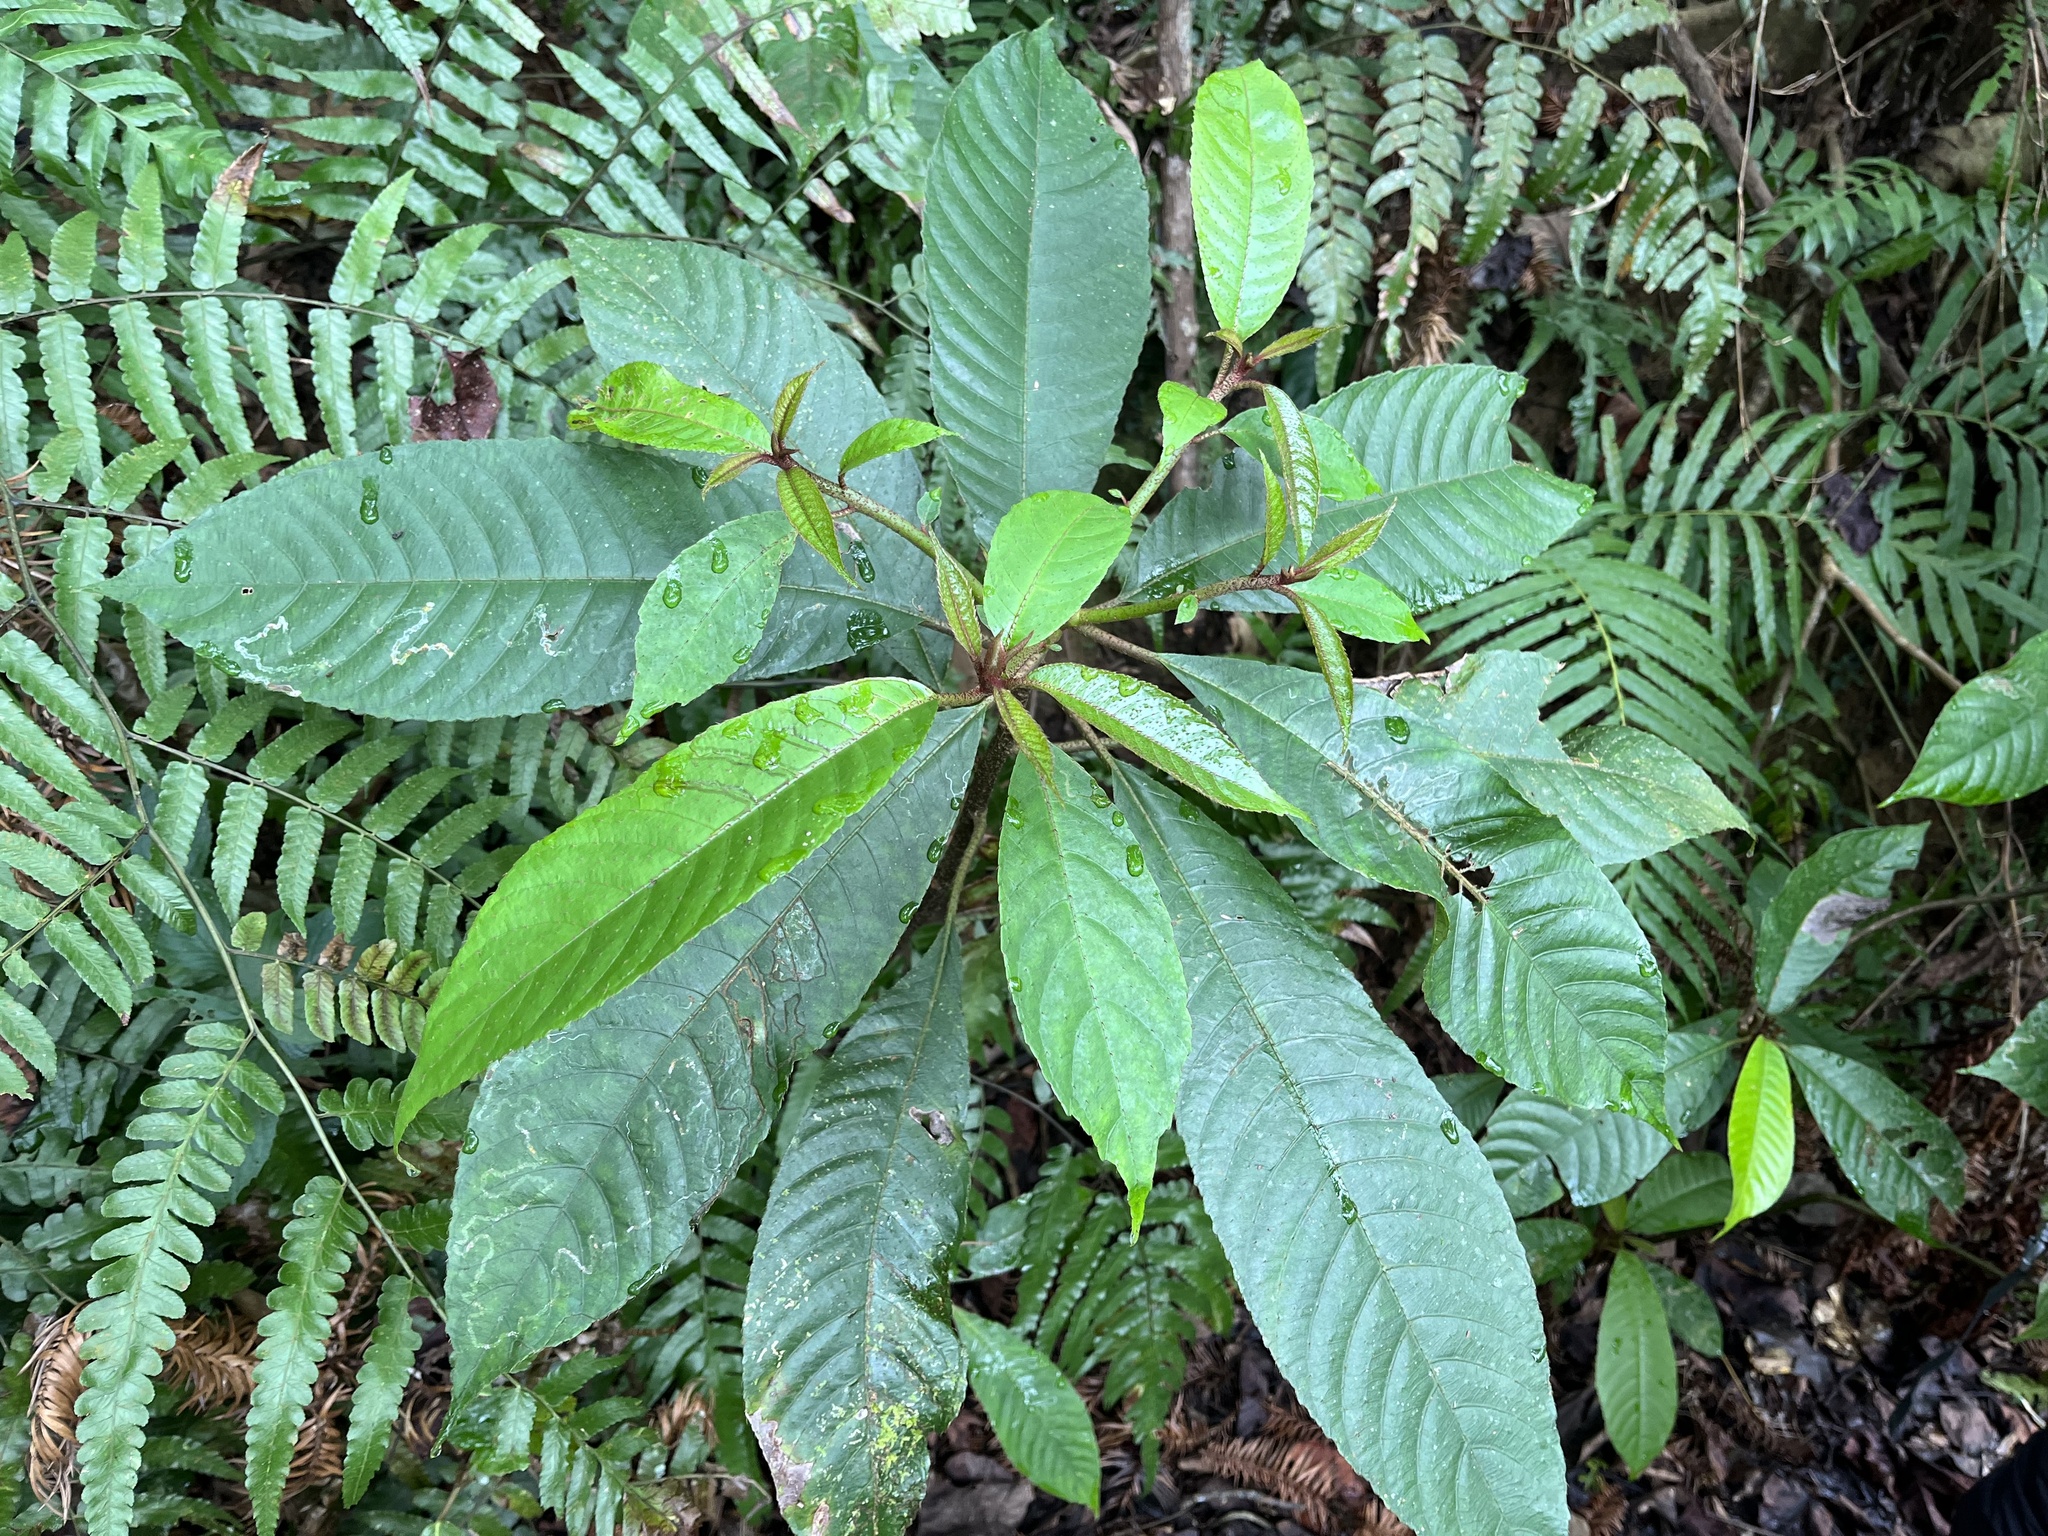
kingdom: Plantae
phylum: Tracheophyta
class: Magnoliopsida
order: Ericales
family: Actinidiaceae
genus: Saurauia
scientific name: Saurauia tristyla
